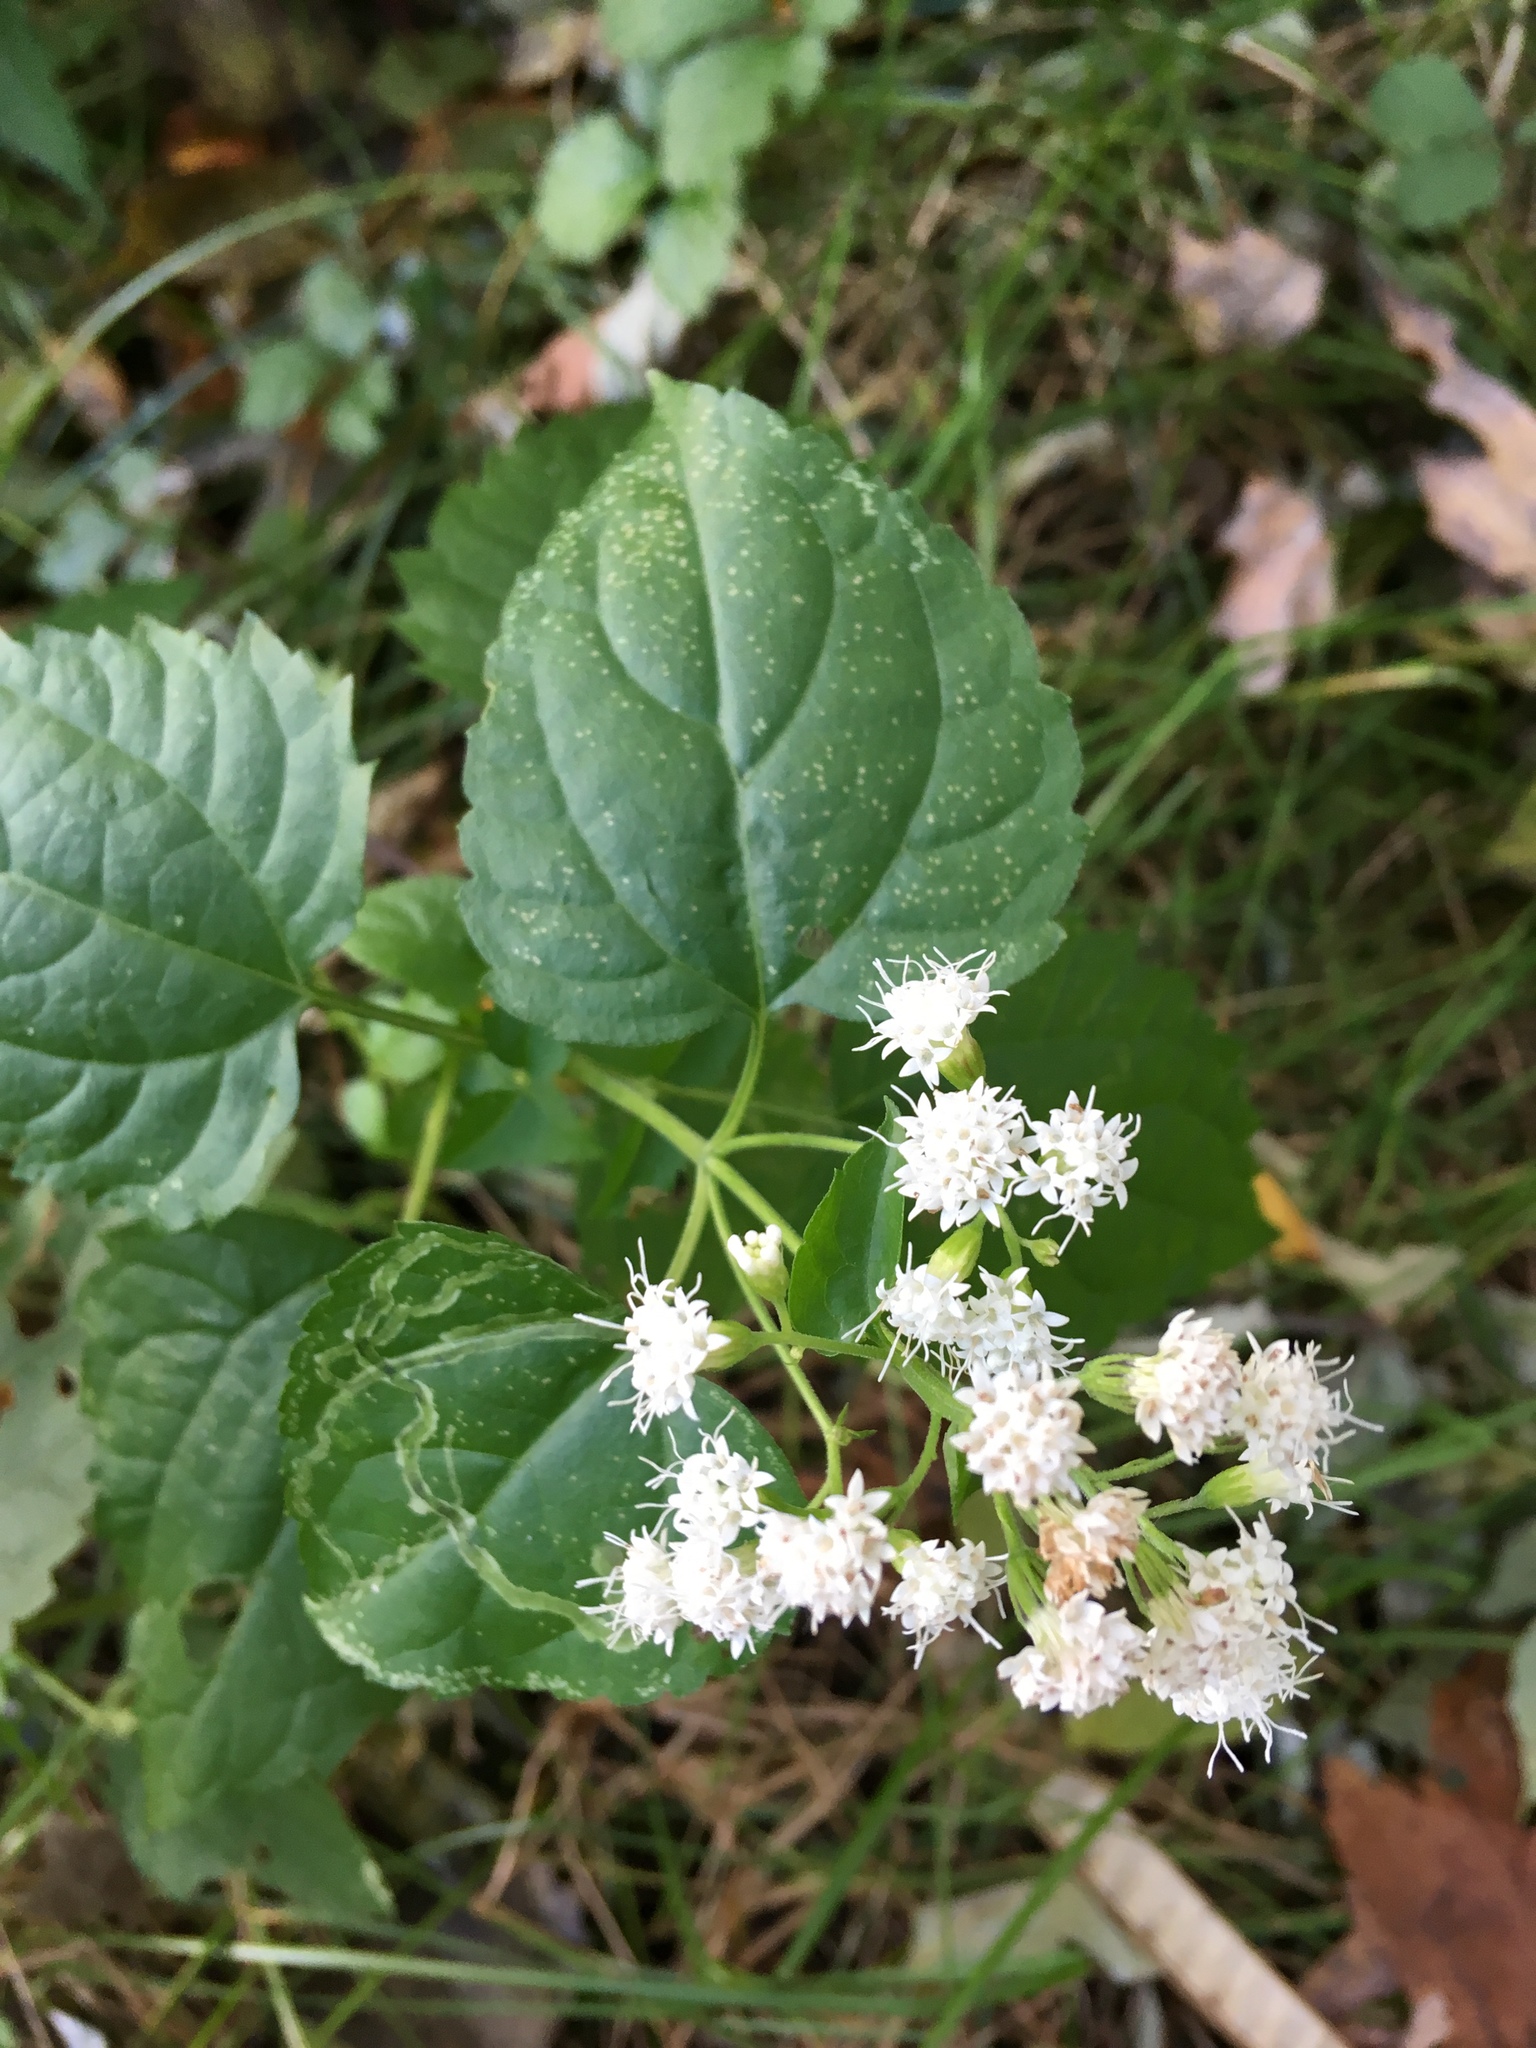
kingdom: Plantae
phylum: Tracheophyta
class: Magnoliopsida
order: Asterales
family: Asteraceae
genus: Ageratina
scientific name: Ageratina altissima
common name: White snakeroot
